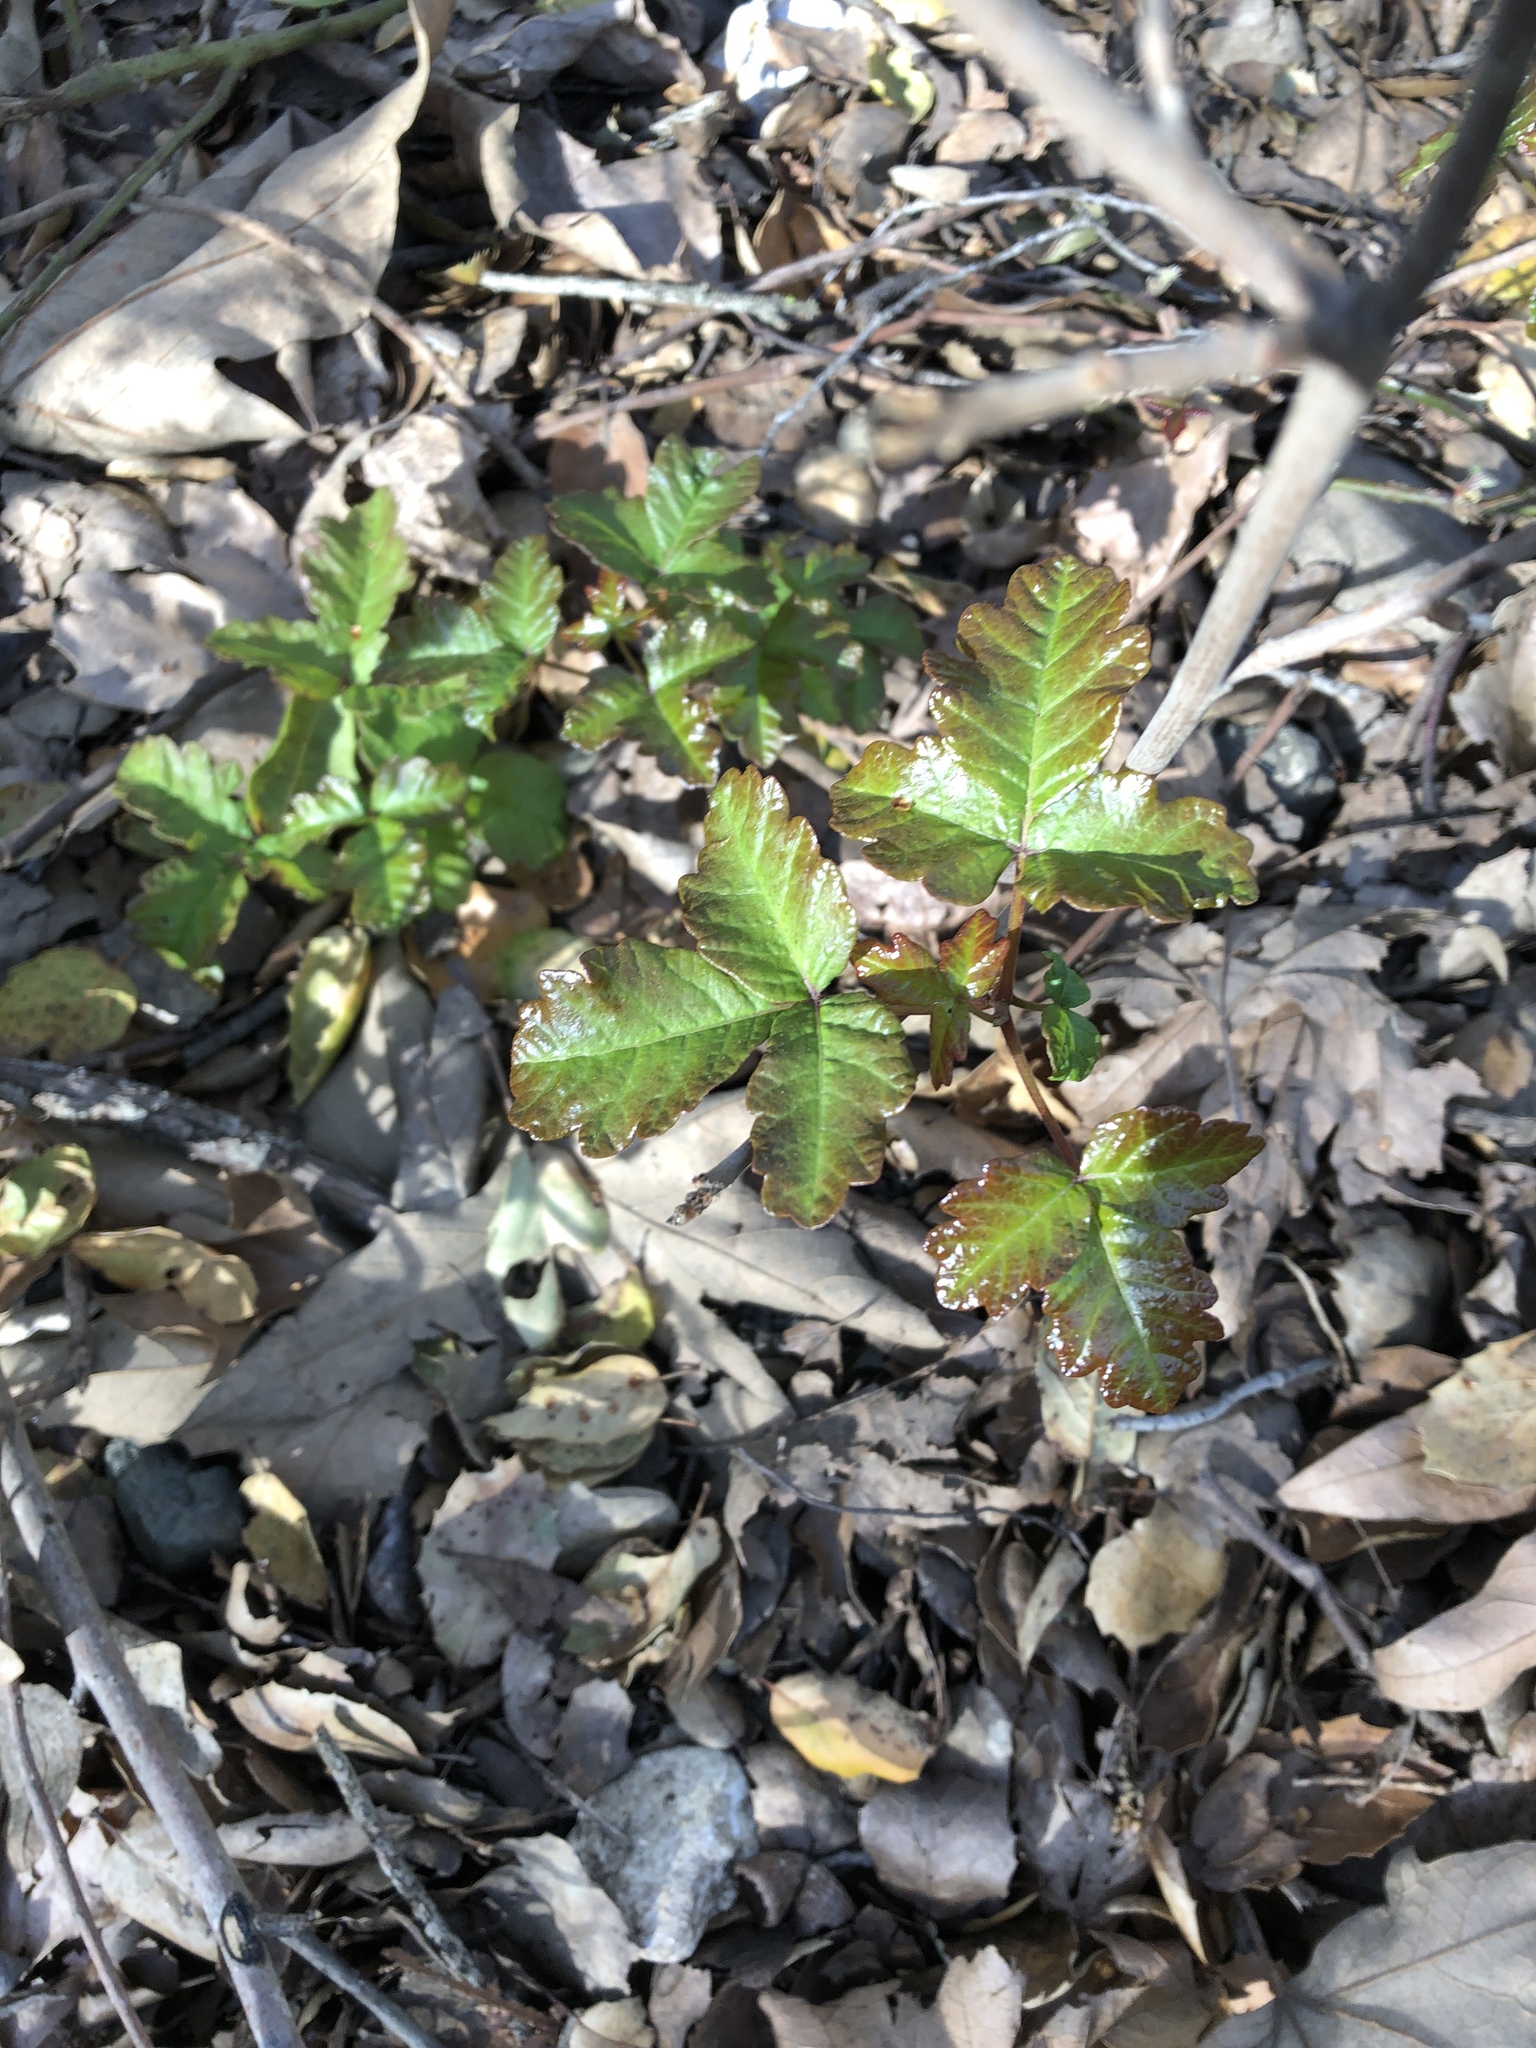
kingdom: Plantae
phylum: Tracheophyta
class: Magnoliopsida
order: Sapindales
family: Anacardiaceae
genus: Toxicodendron
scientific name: Toxicodendron diversilobum
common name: Pacific poison-oak
